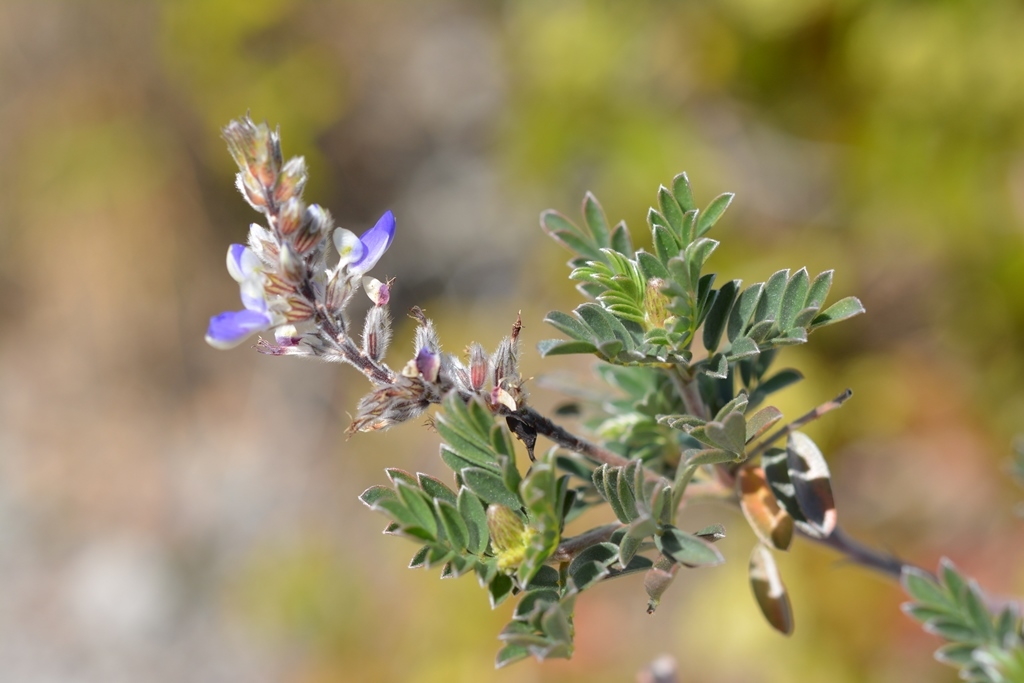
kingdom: Plantae
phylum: Tracheophyta
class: Magnoliopsida
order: Fabales
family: Fabaceae
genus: Marina
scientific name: Marina spiciformis
